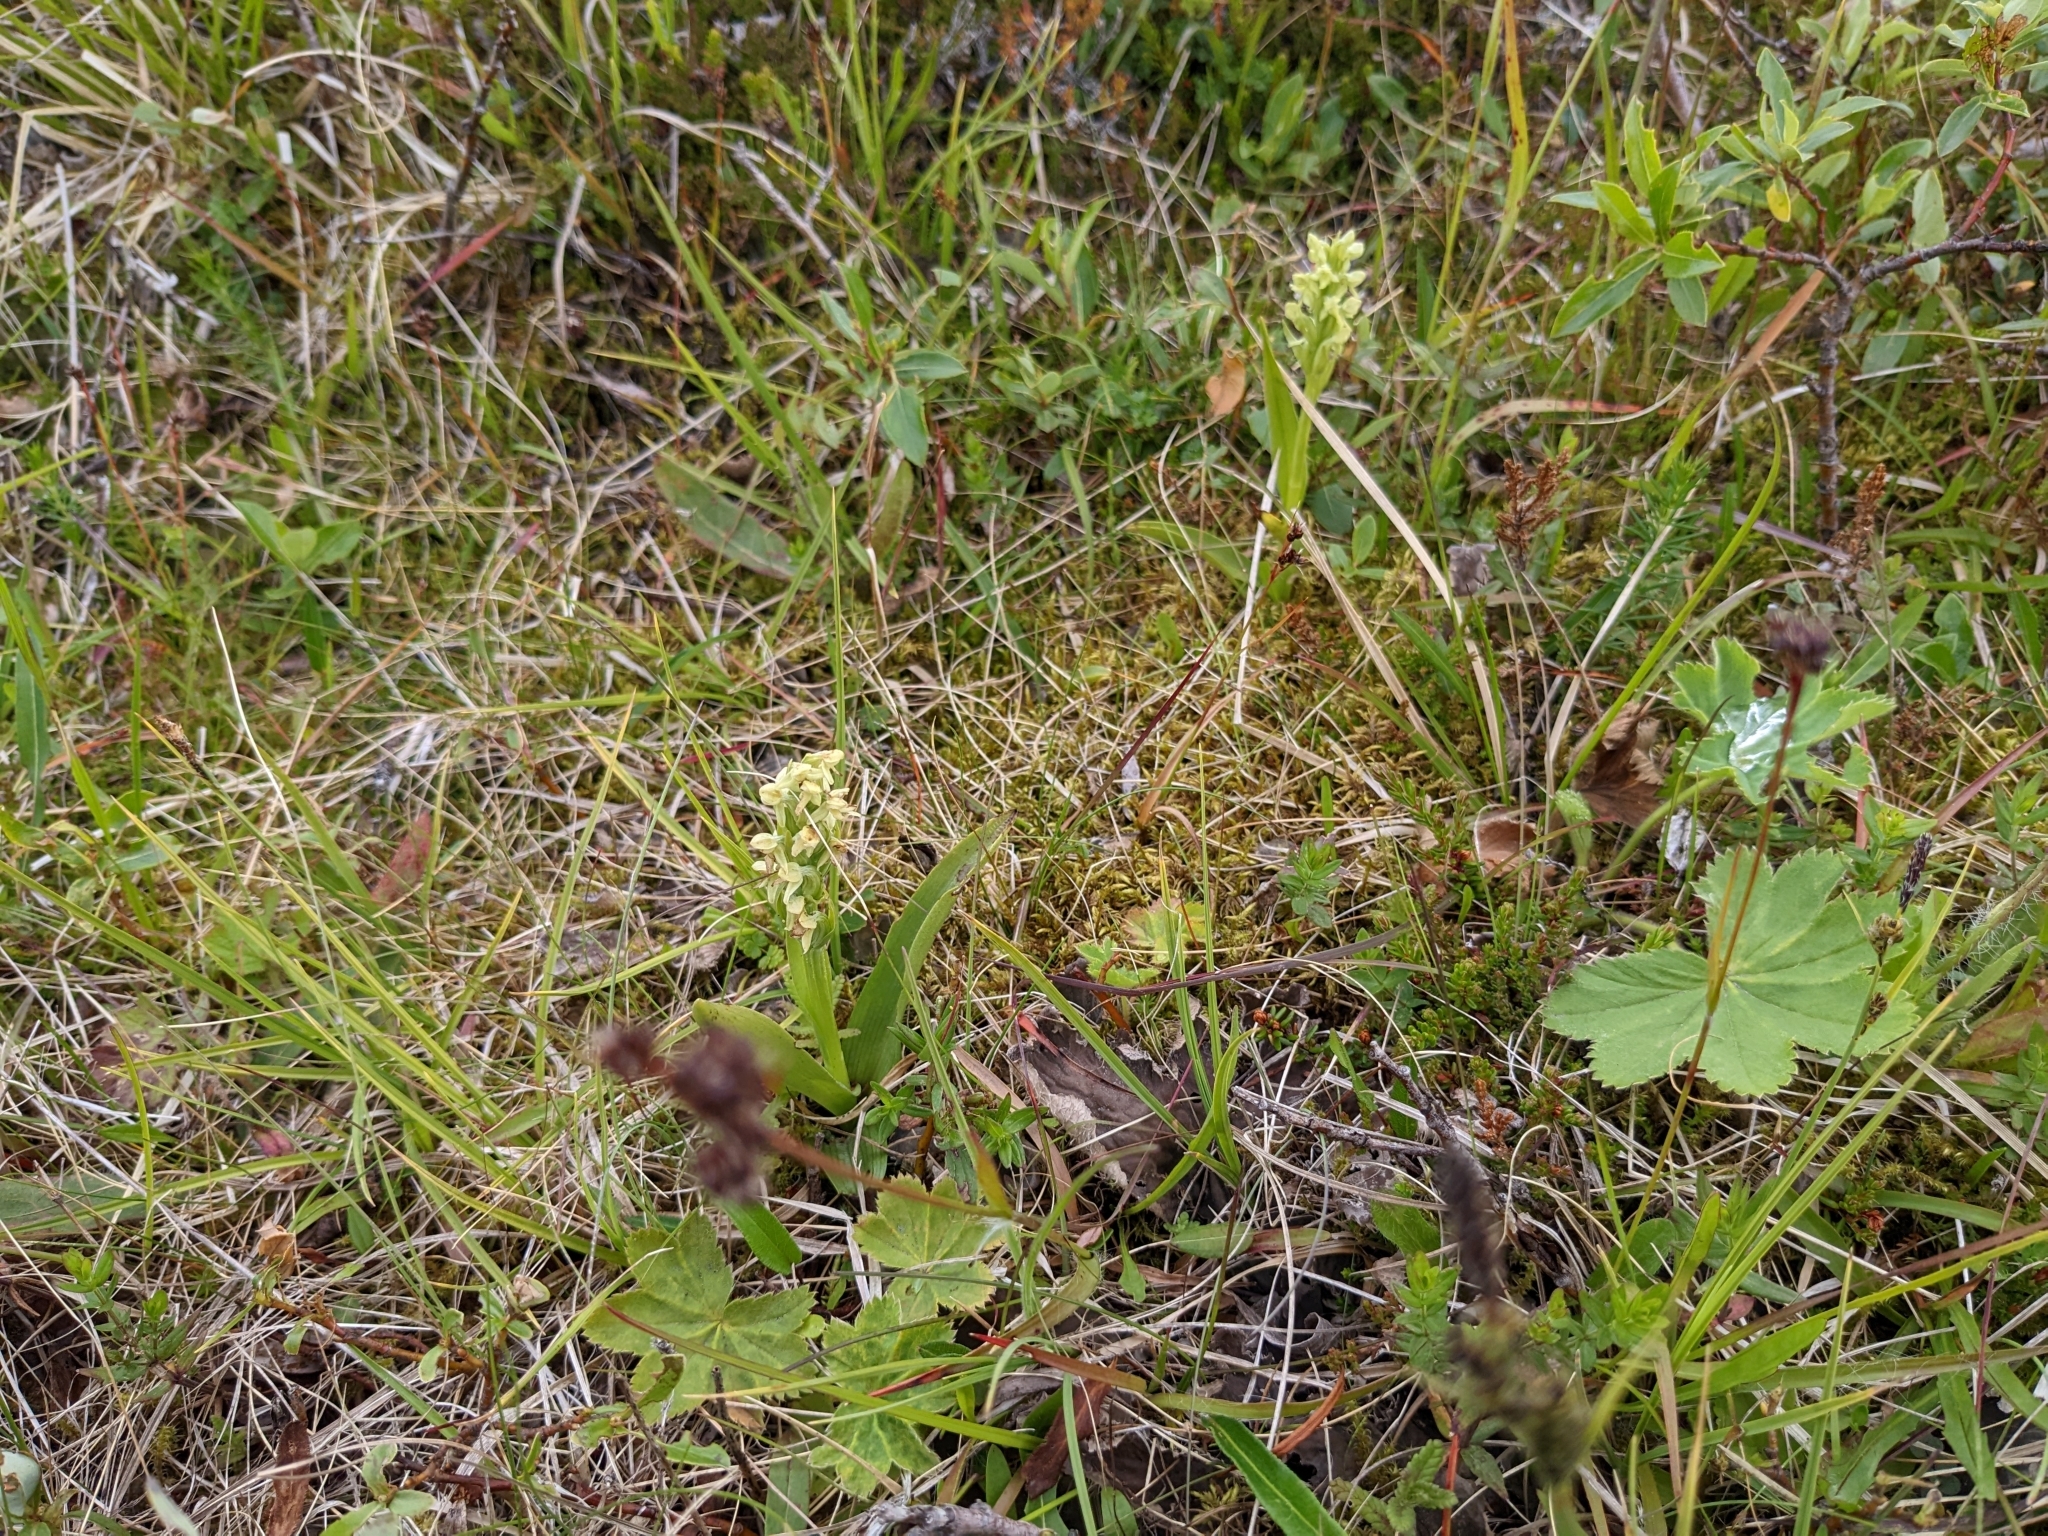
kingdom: Plantae
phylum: Tracheophyta
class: Liliopsida
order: Asparagales
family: Orchidaceae
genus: Platanthera
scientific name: Platanthera hyperborea
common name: Northern green orchid
